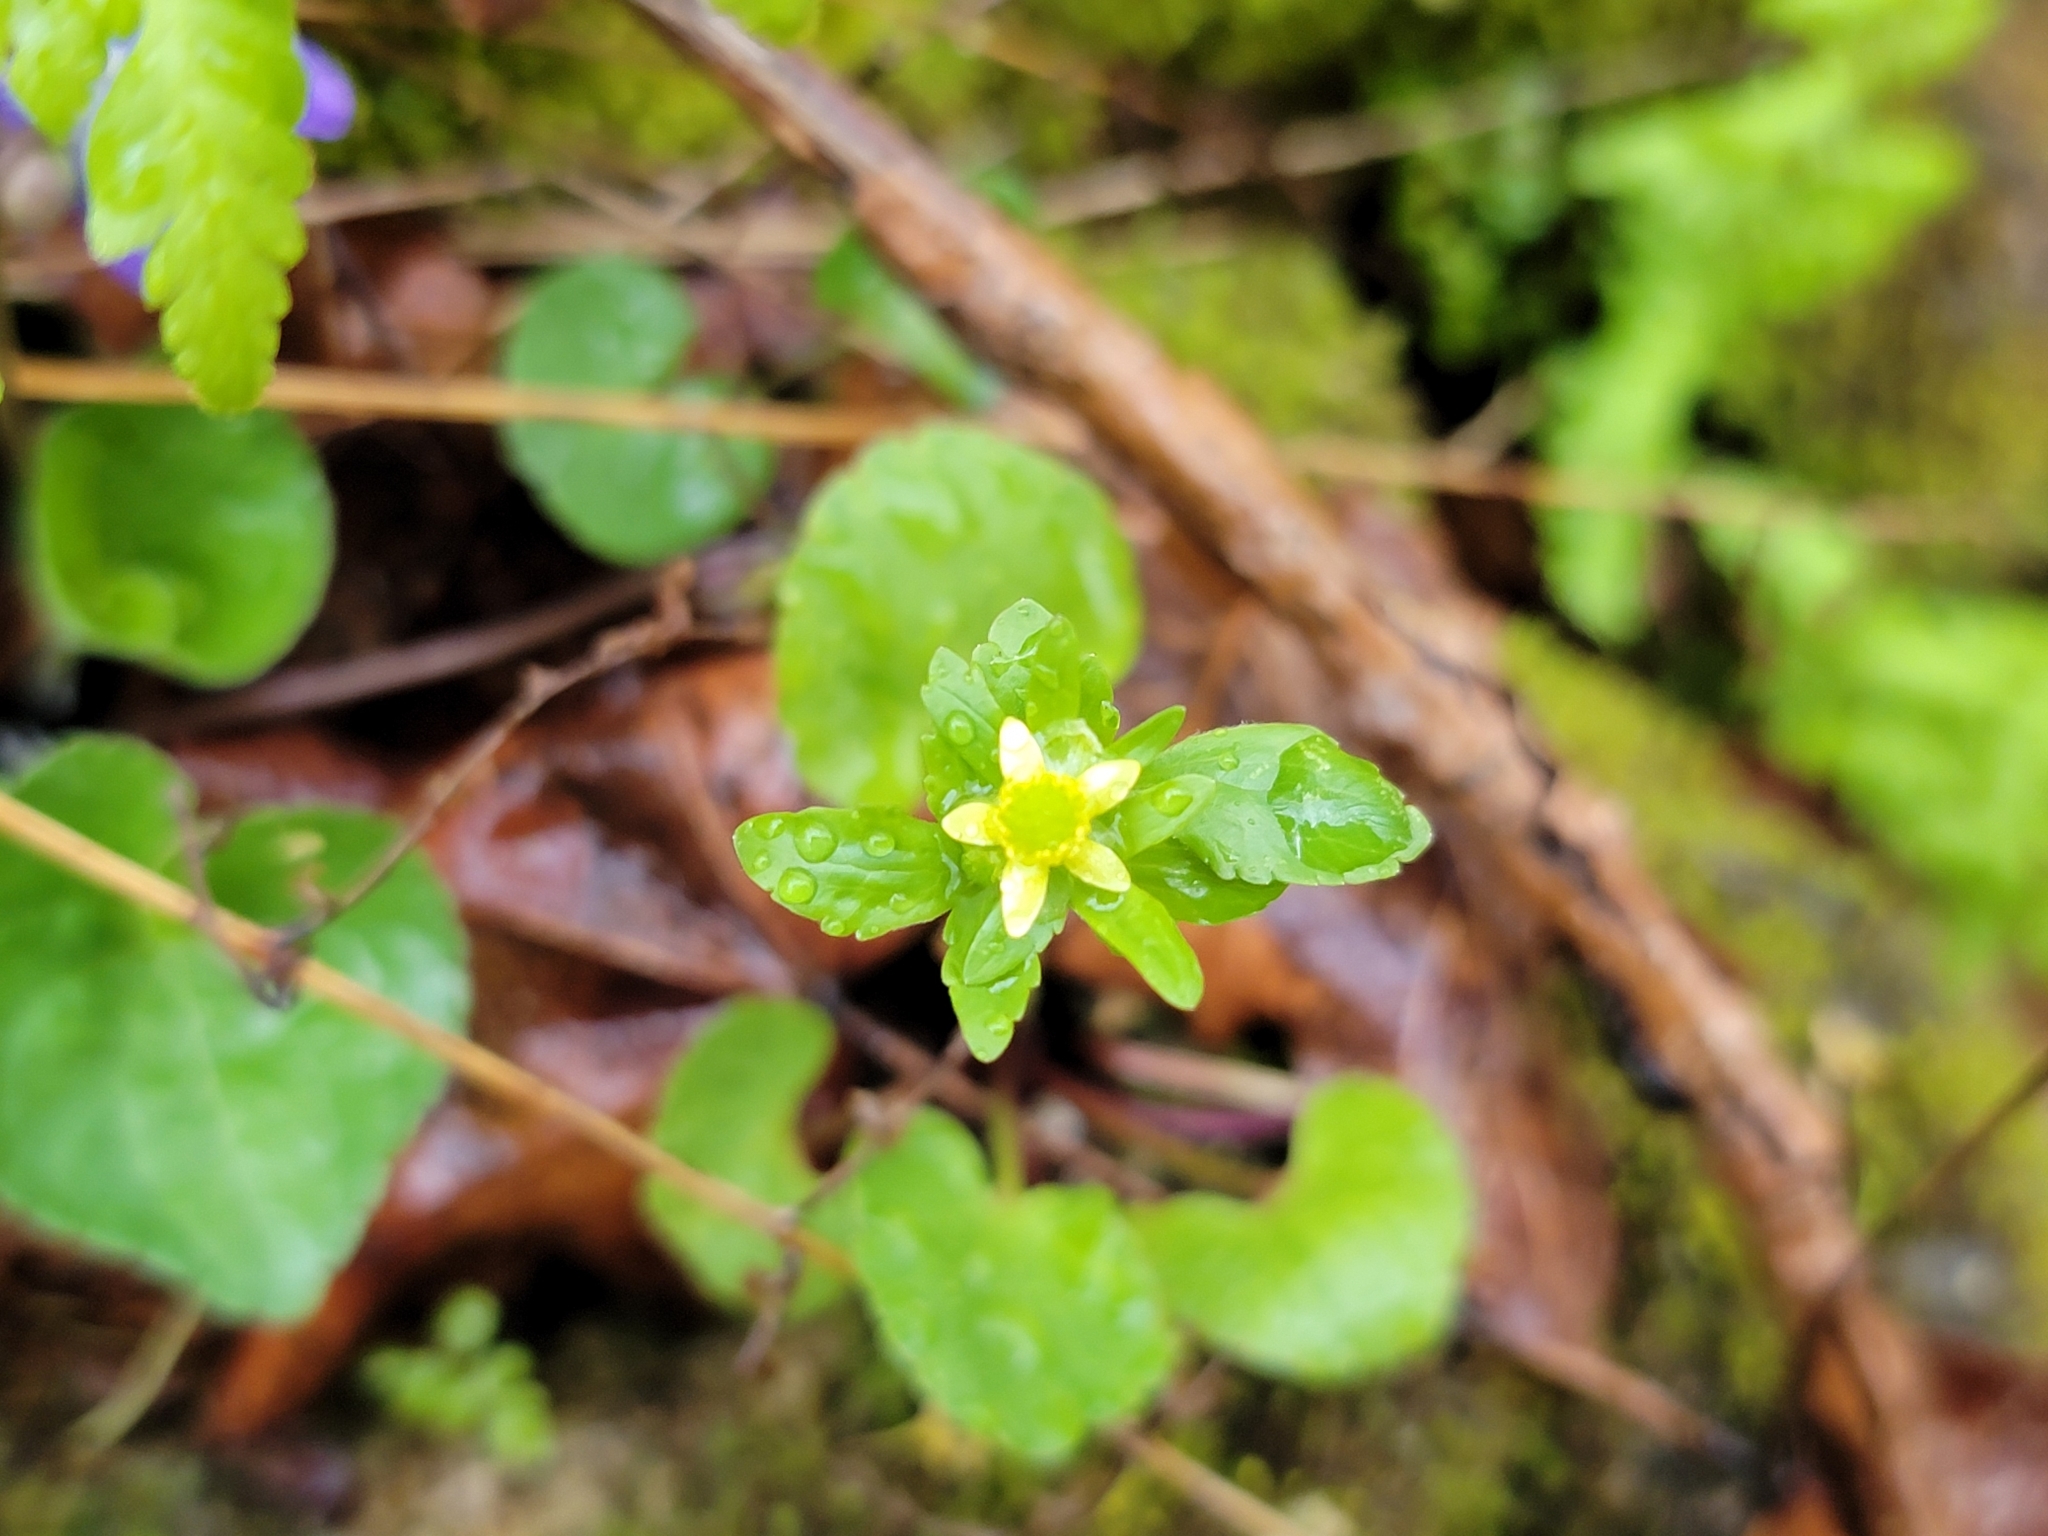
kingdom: Plantae
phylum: Tracheophyta
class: Magnoliopsida
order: Ranunculales
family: Ranunculaceae
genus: Ranunculus
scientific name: Ranunculus abortivus
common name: Early wood buttercup
